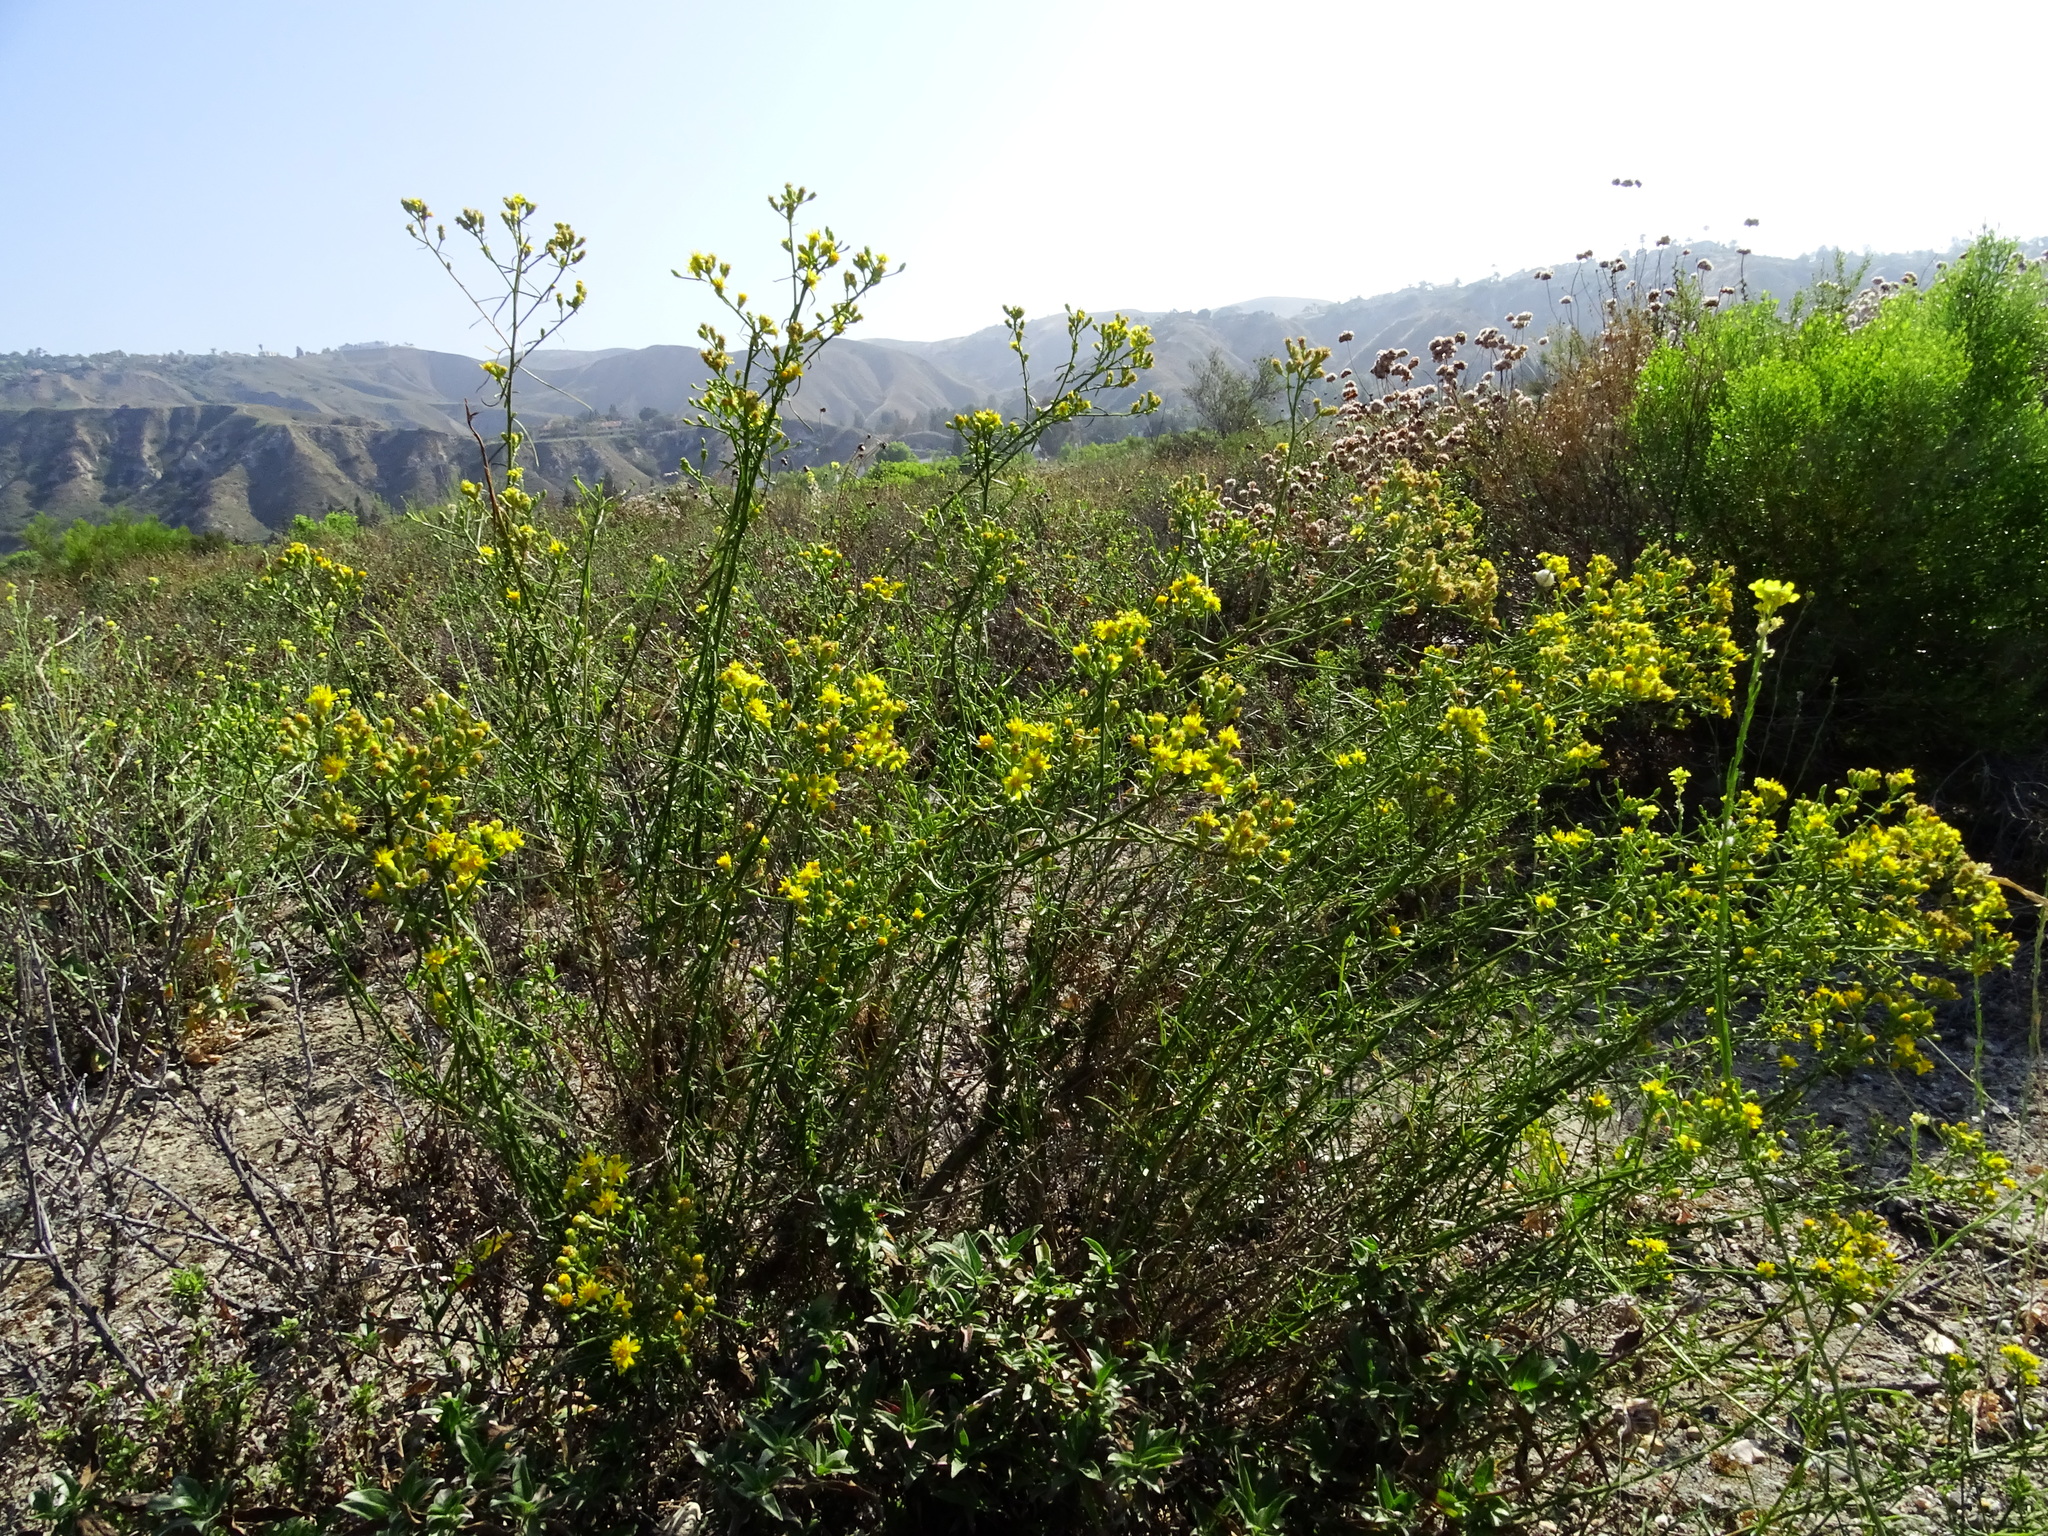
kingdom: Plantae
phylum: Tracheophyta
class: Magnoliopsida
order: Asterales
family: Asteraceae
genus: Gutierrezia
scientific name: Gutierrezia californica
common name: California matchweed
